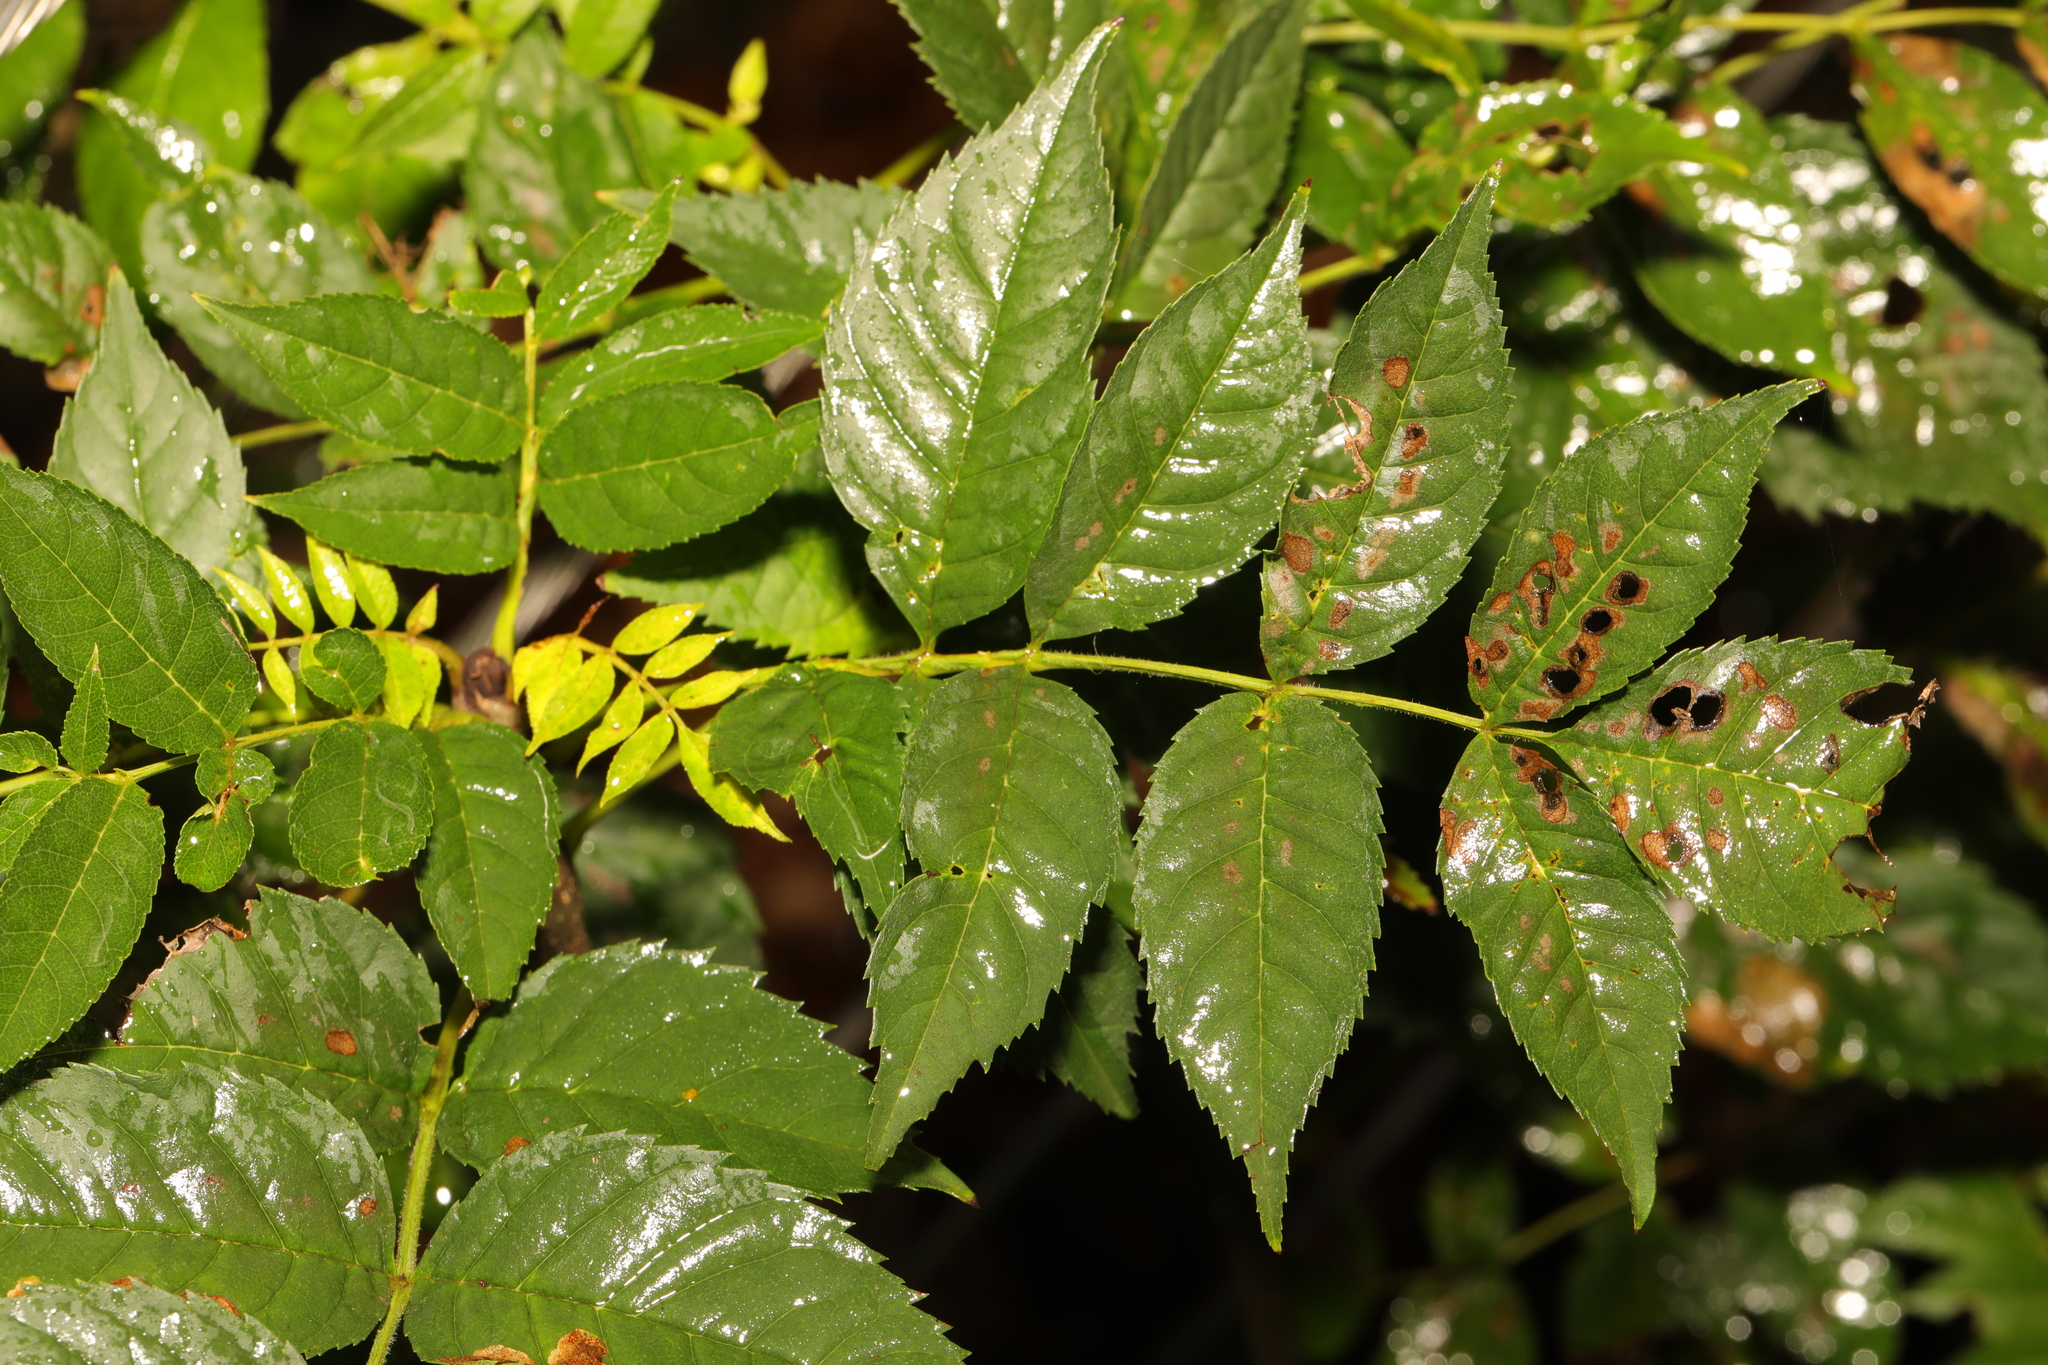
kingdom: Plantae
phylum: Tracheophyta
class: Magnoliopsida
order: Lamiales
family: Oleaceae
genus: Fraxinus
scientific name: Fraxinus excelsior
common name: European ash
